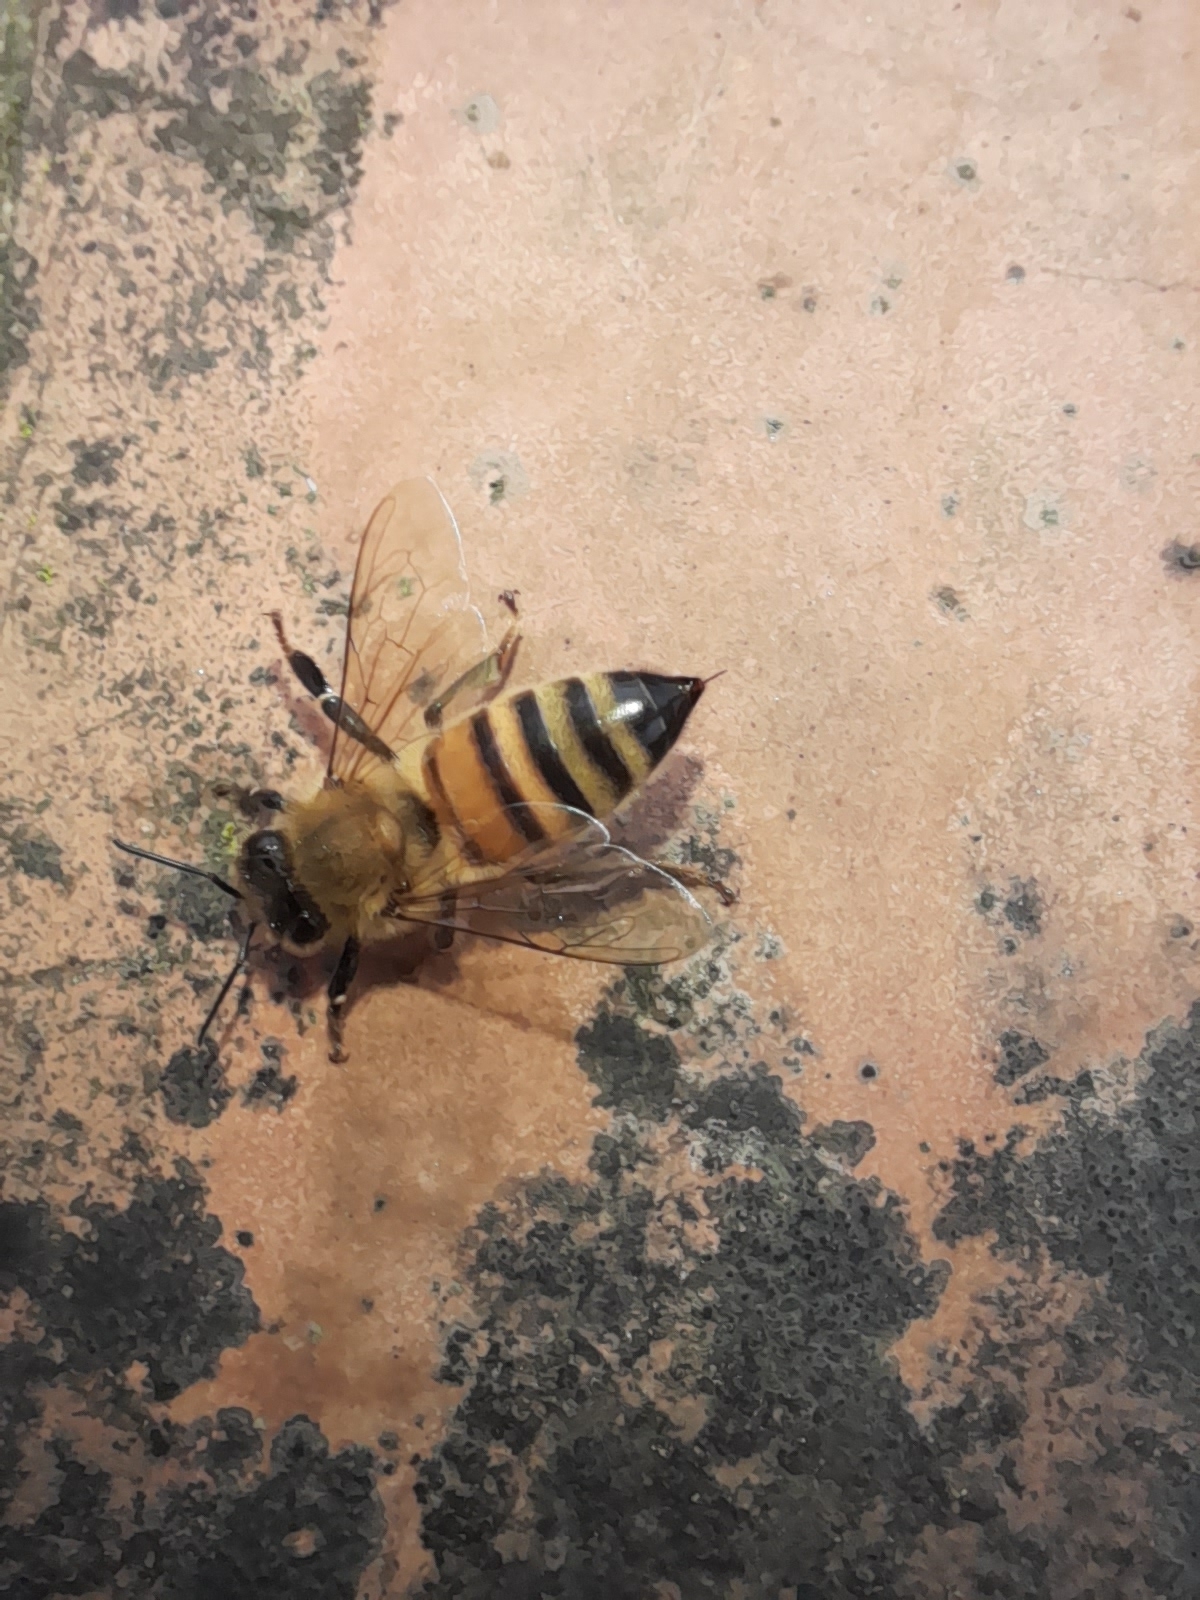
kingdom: Animalia
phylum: Arthropoda
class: Insecta
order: Hymenoptera
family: Apidae
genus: Apis
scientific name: Apis mellifera
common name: Honey bee
